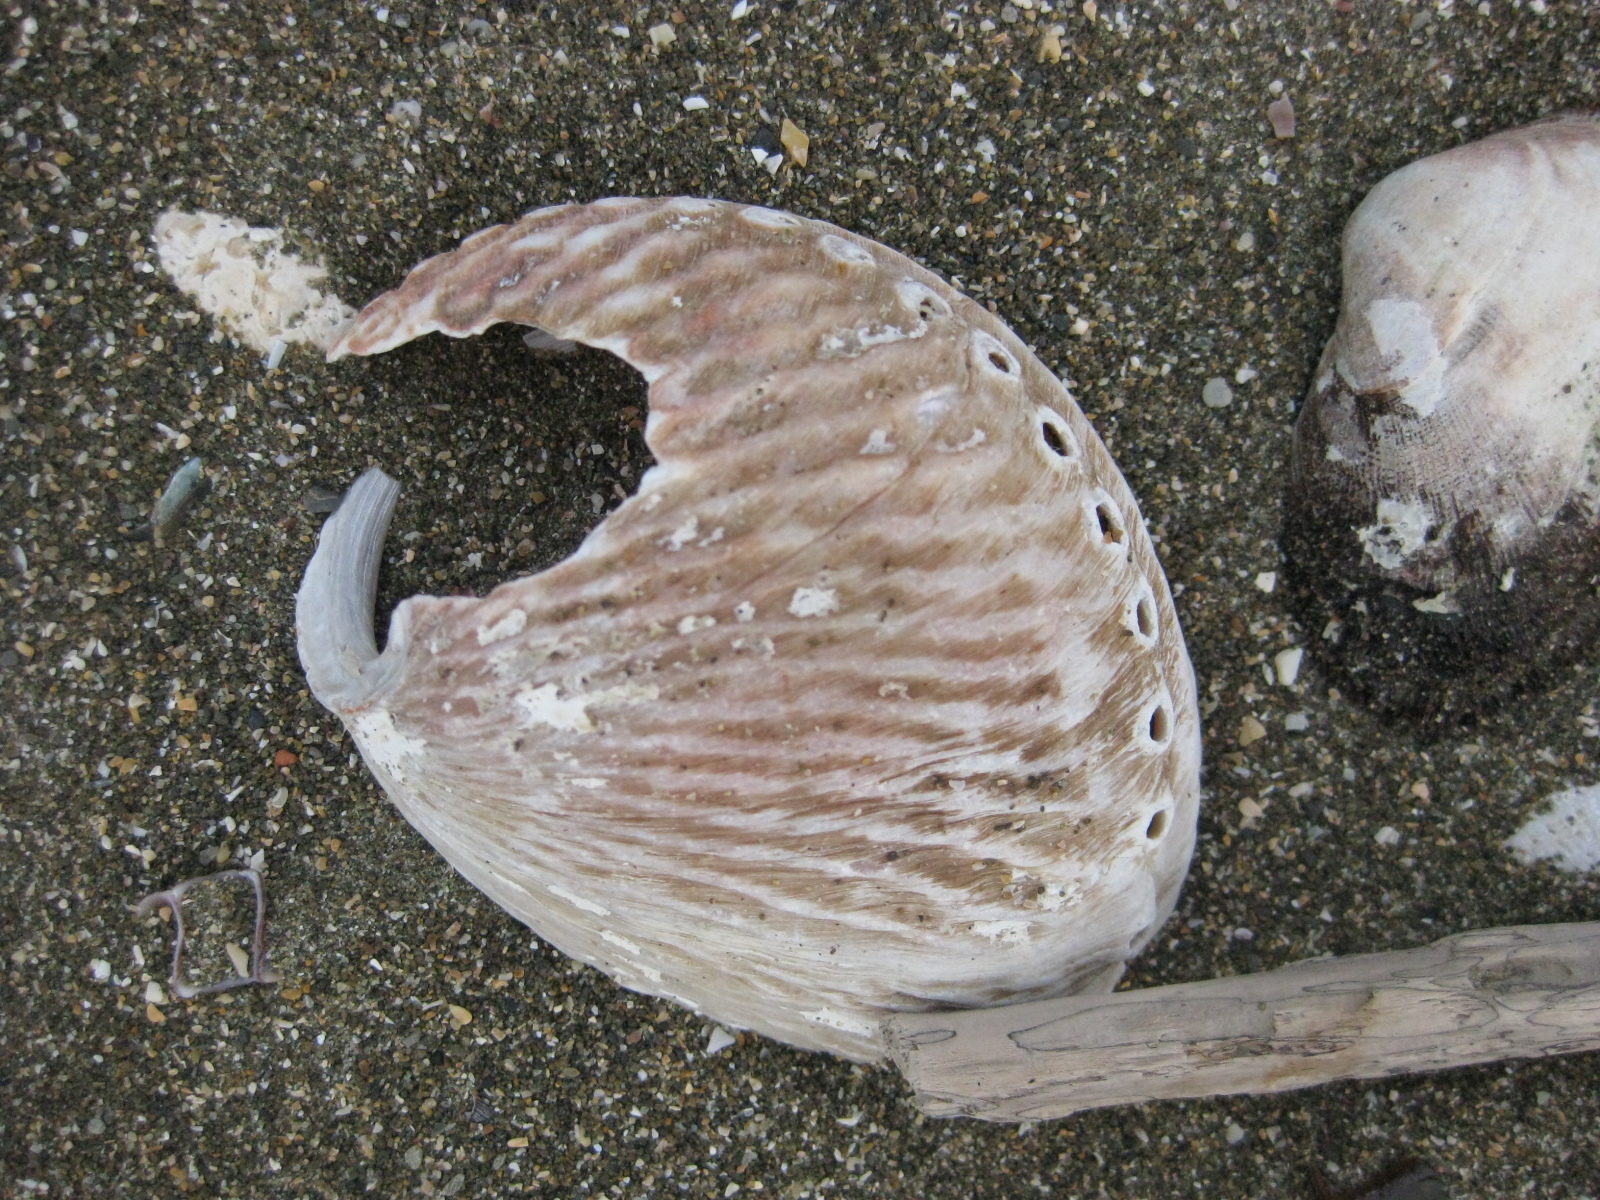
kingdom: Animalia
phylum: Mollusca
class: Gastropoda
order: Lepetellida
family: Haliotidae
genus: Haliotis
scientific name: Haliotis australis
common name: Silver abalone
